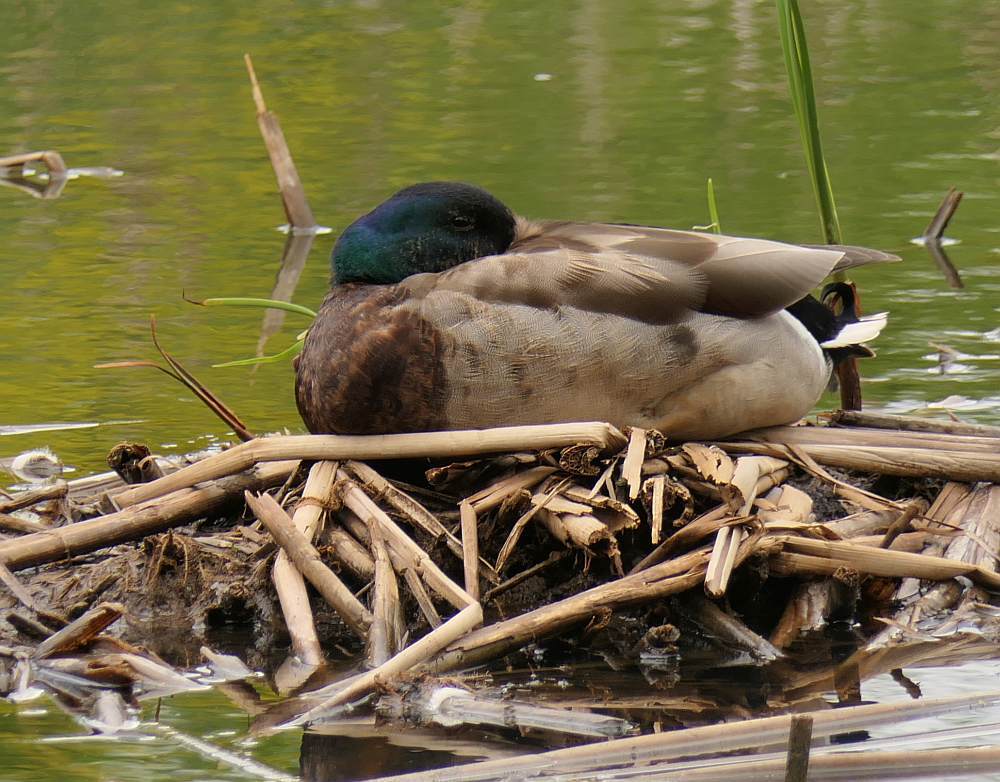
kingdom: Animalia
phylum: Chordata
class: Aves
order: Anseriformes
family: Anatidae
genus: Anas
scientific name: Anas platyrhynchos
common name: Mallard
